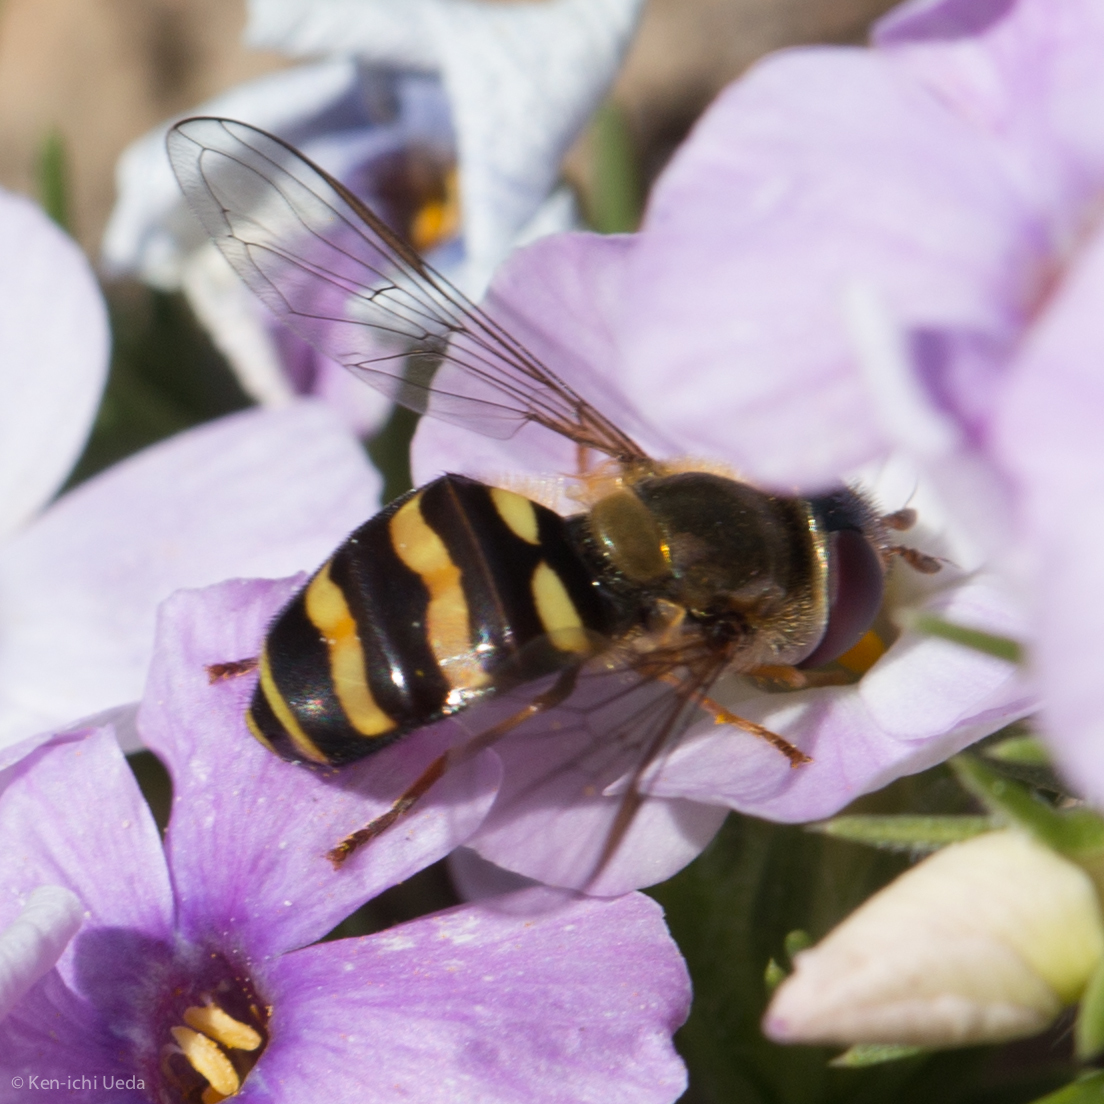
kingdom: Animalia
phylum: Arthropoda
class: Insecta
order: Diptera
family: Syrphidae
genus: Eupeodes
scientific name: Eupeodes fumipennis
